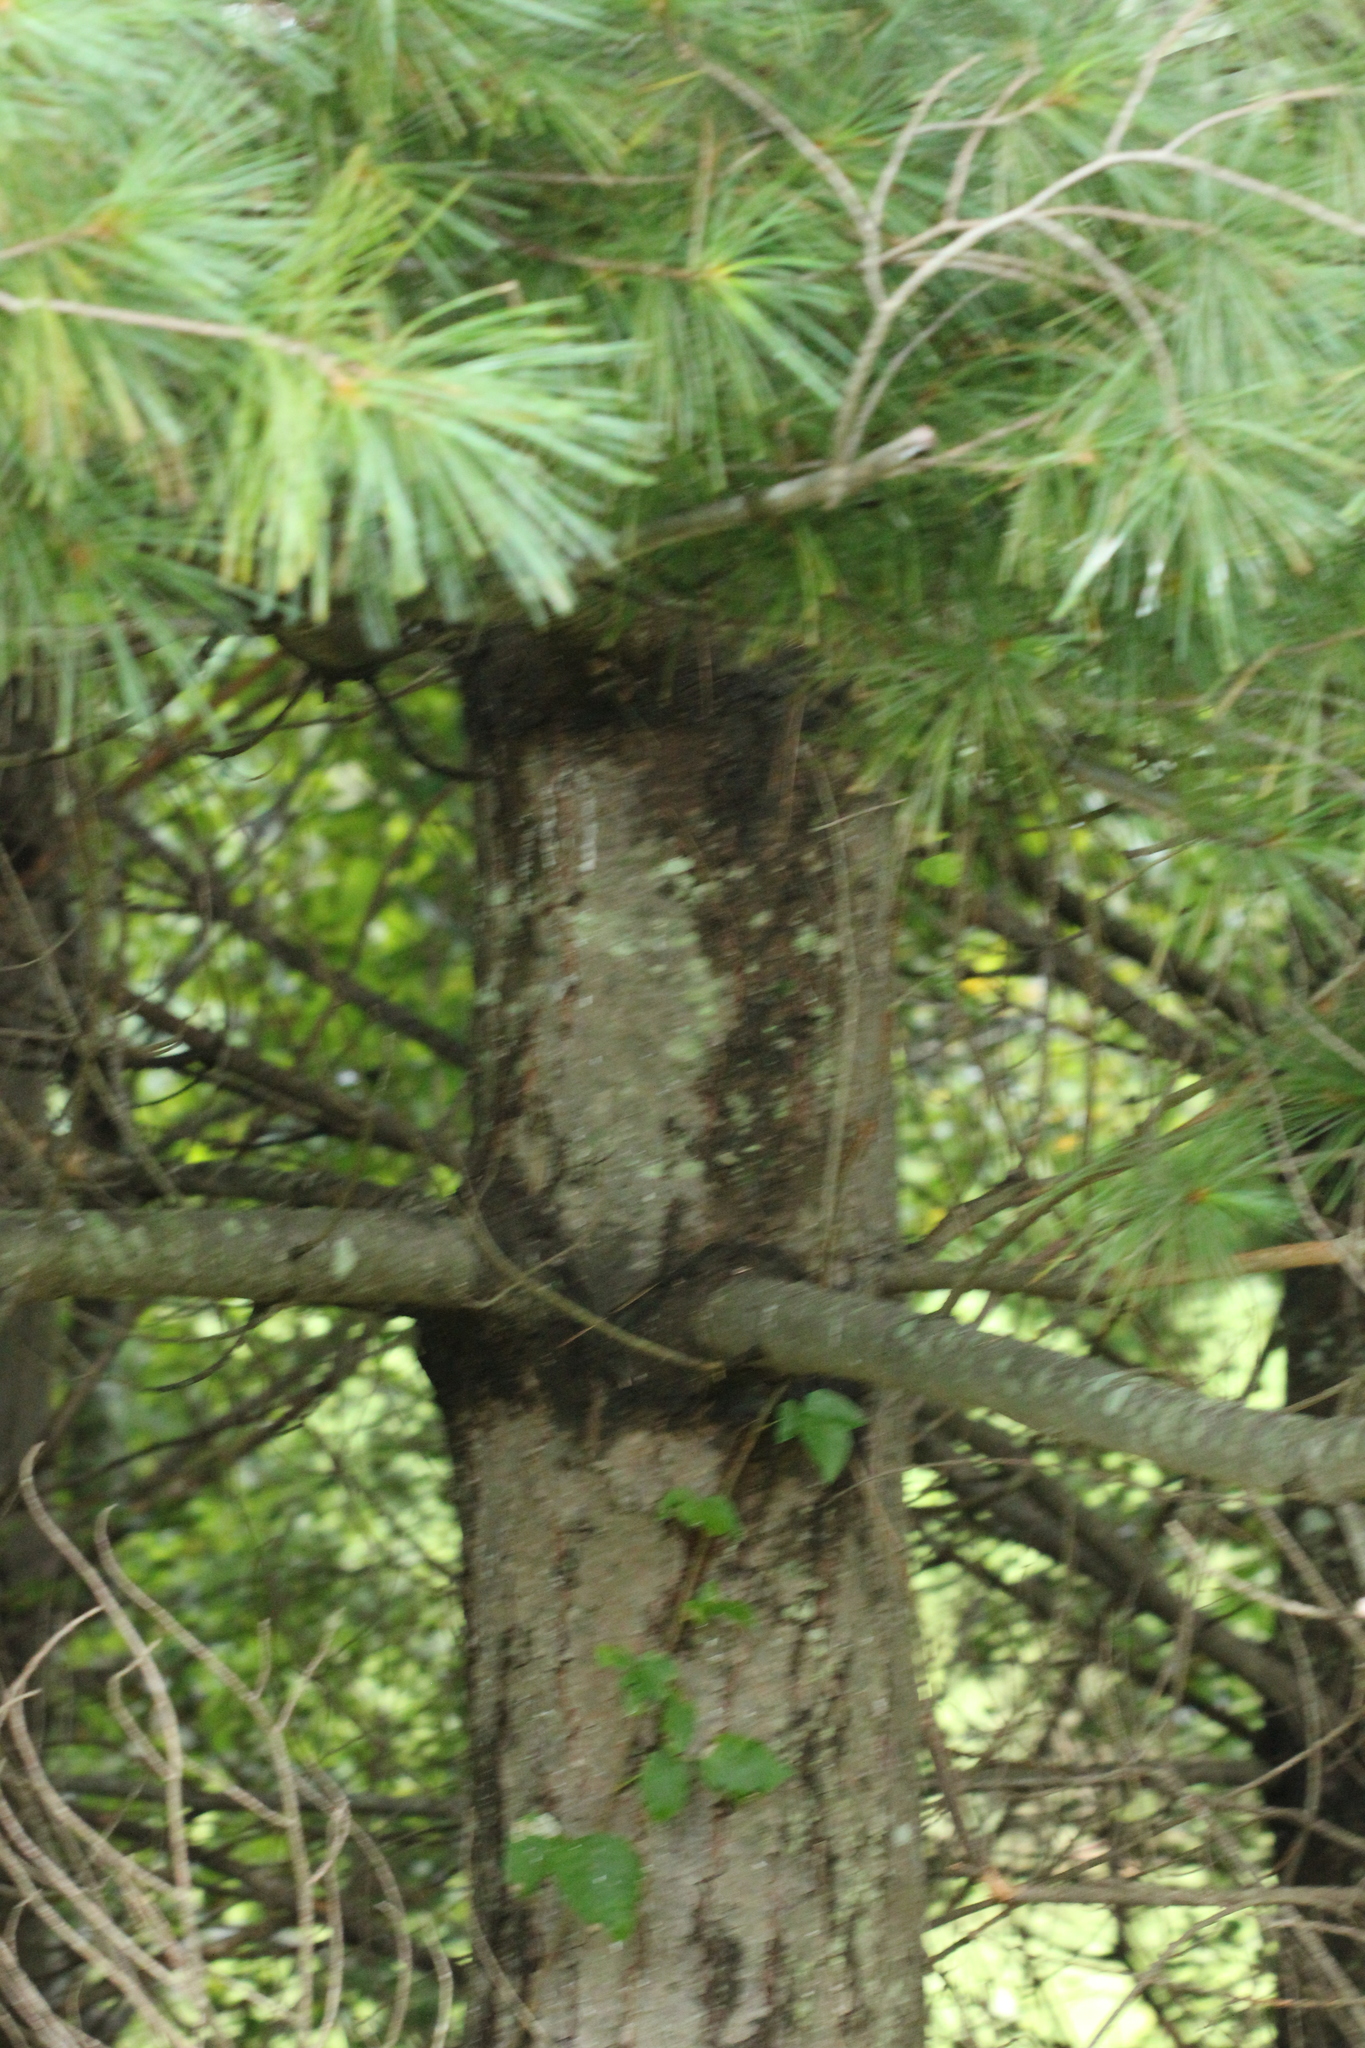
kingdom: Plantae
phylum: Tracheophyta
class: Pinopsida
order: Pinales
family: Pinaceae
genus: Pinus
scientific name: Pinus strobus
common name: Weymouth pine
